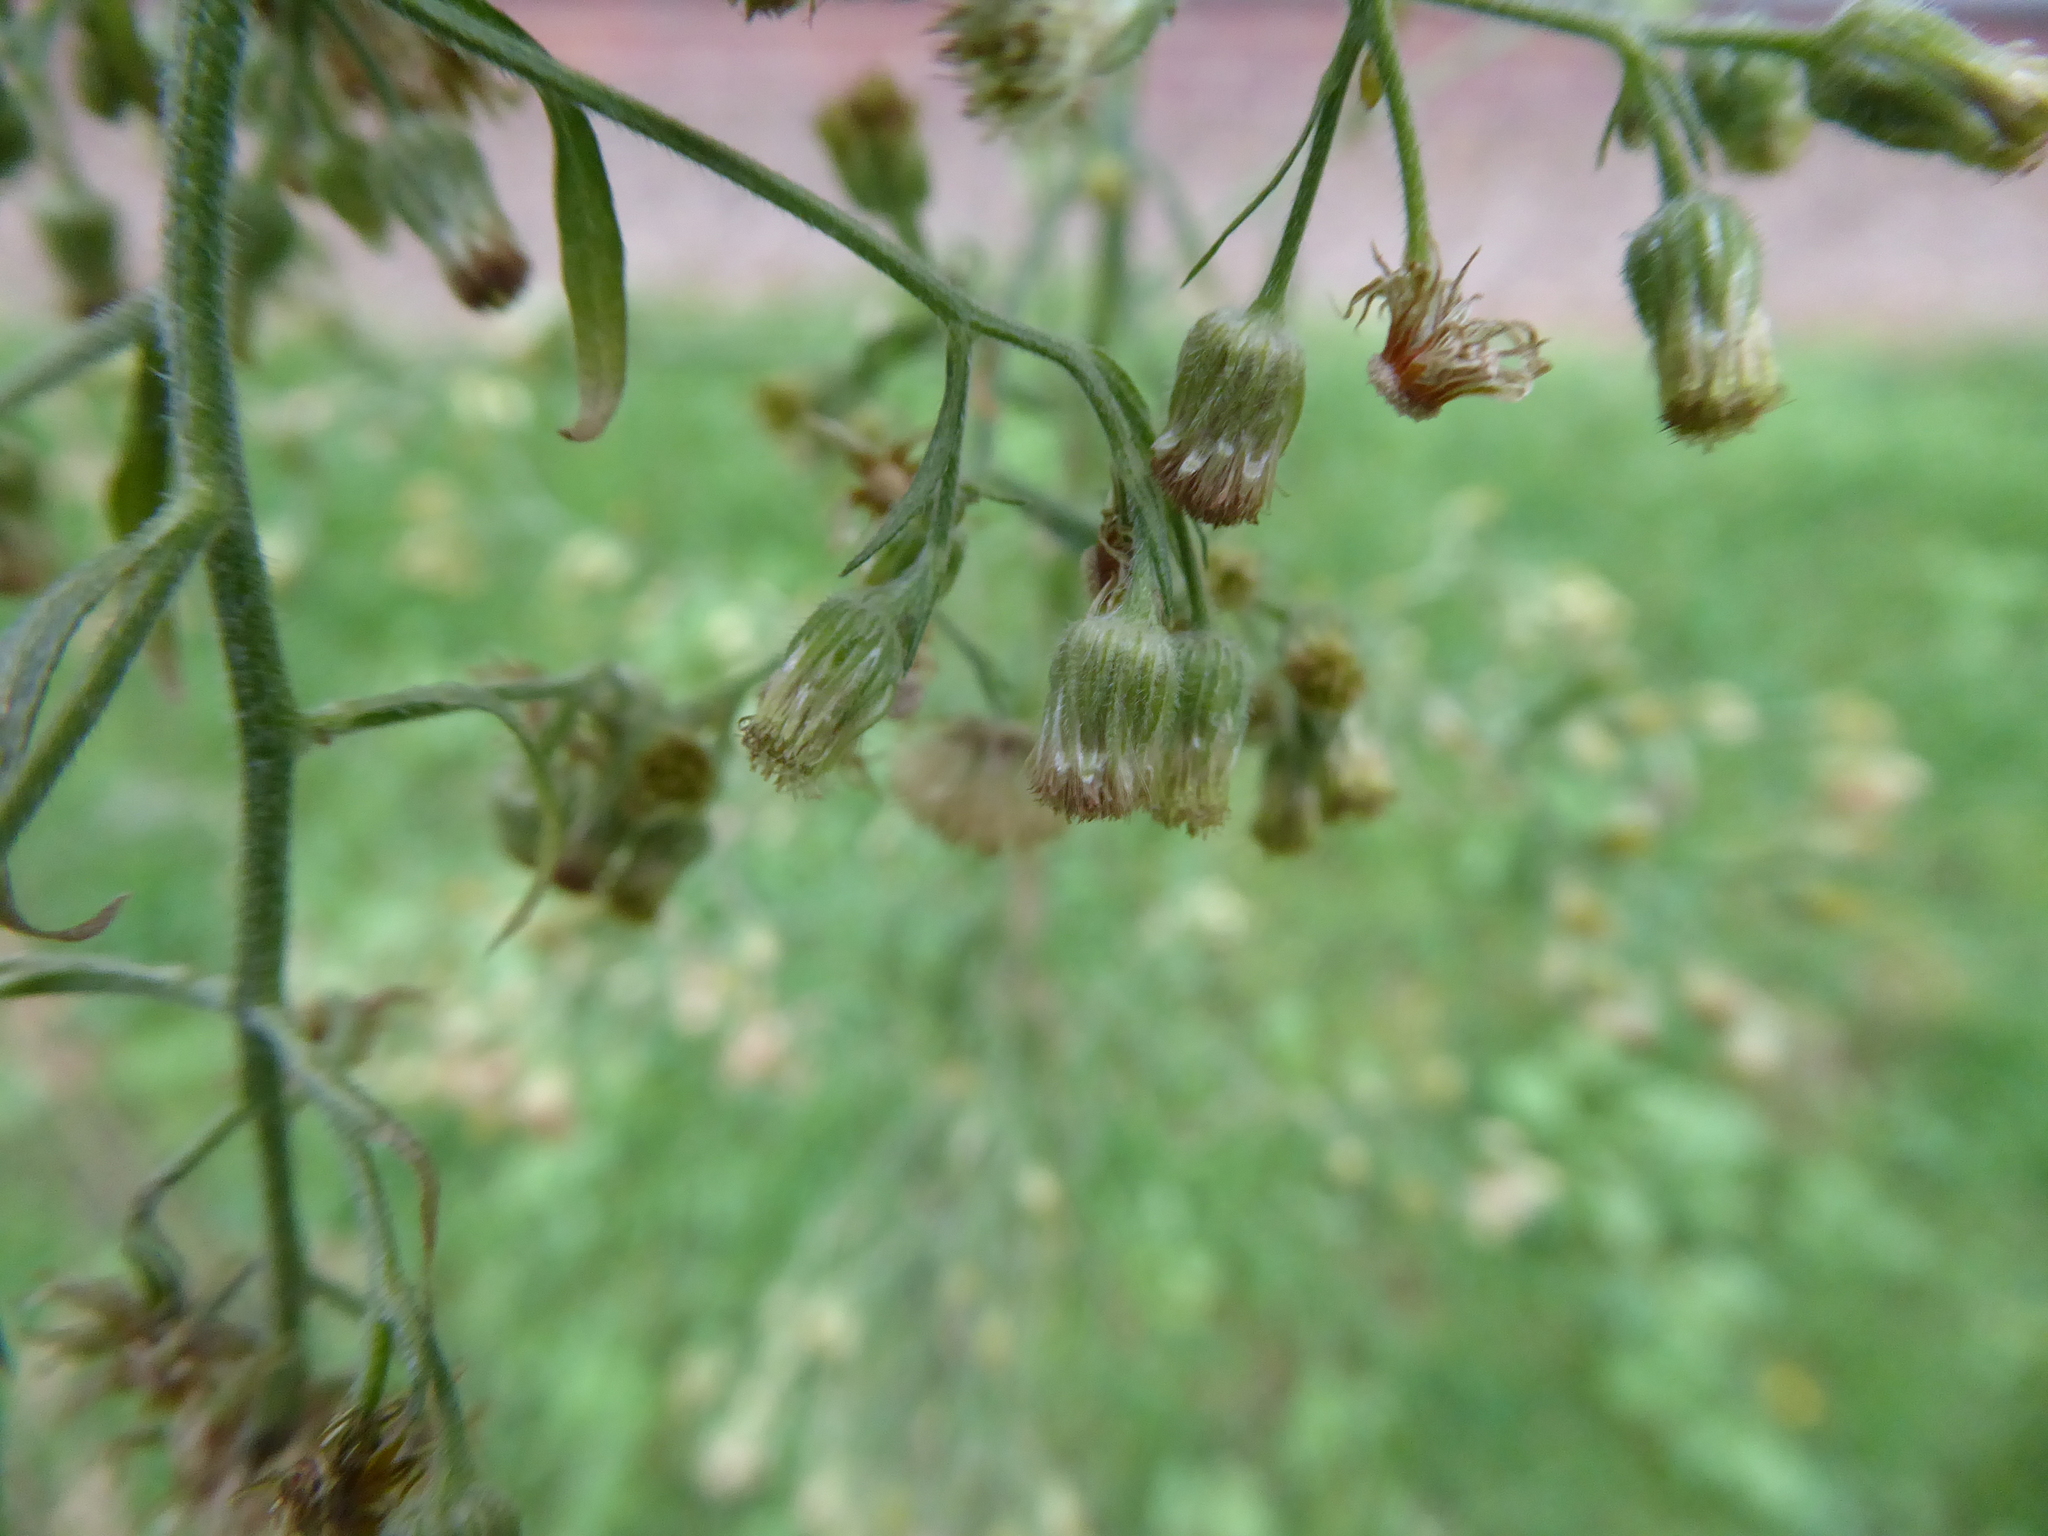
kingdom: Plantae
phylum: Tracheophyta
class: Magnoliopsida
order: Asterales
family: Asteraceae
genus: Erigeron
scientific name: Erigeron sumatrensis
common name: Daisy
